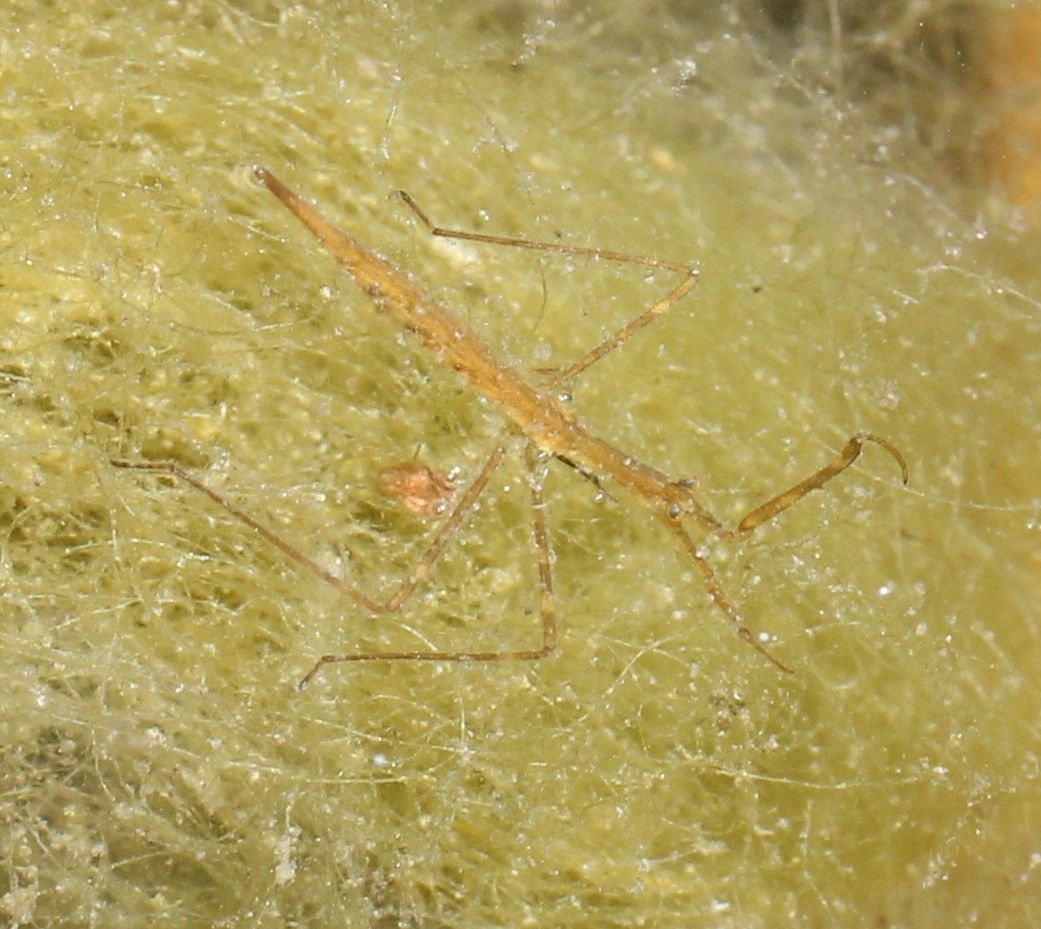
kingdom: Animalia
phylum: Arthropoda
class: Insecta
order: Hemiptera
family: Nepidae
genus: Ranatra
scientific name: Ranatra quadridentata
